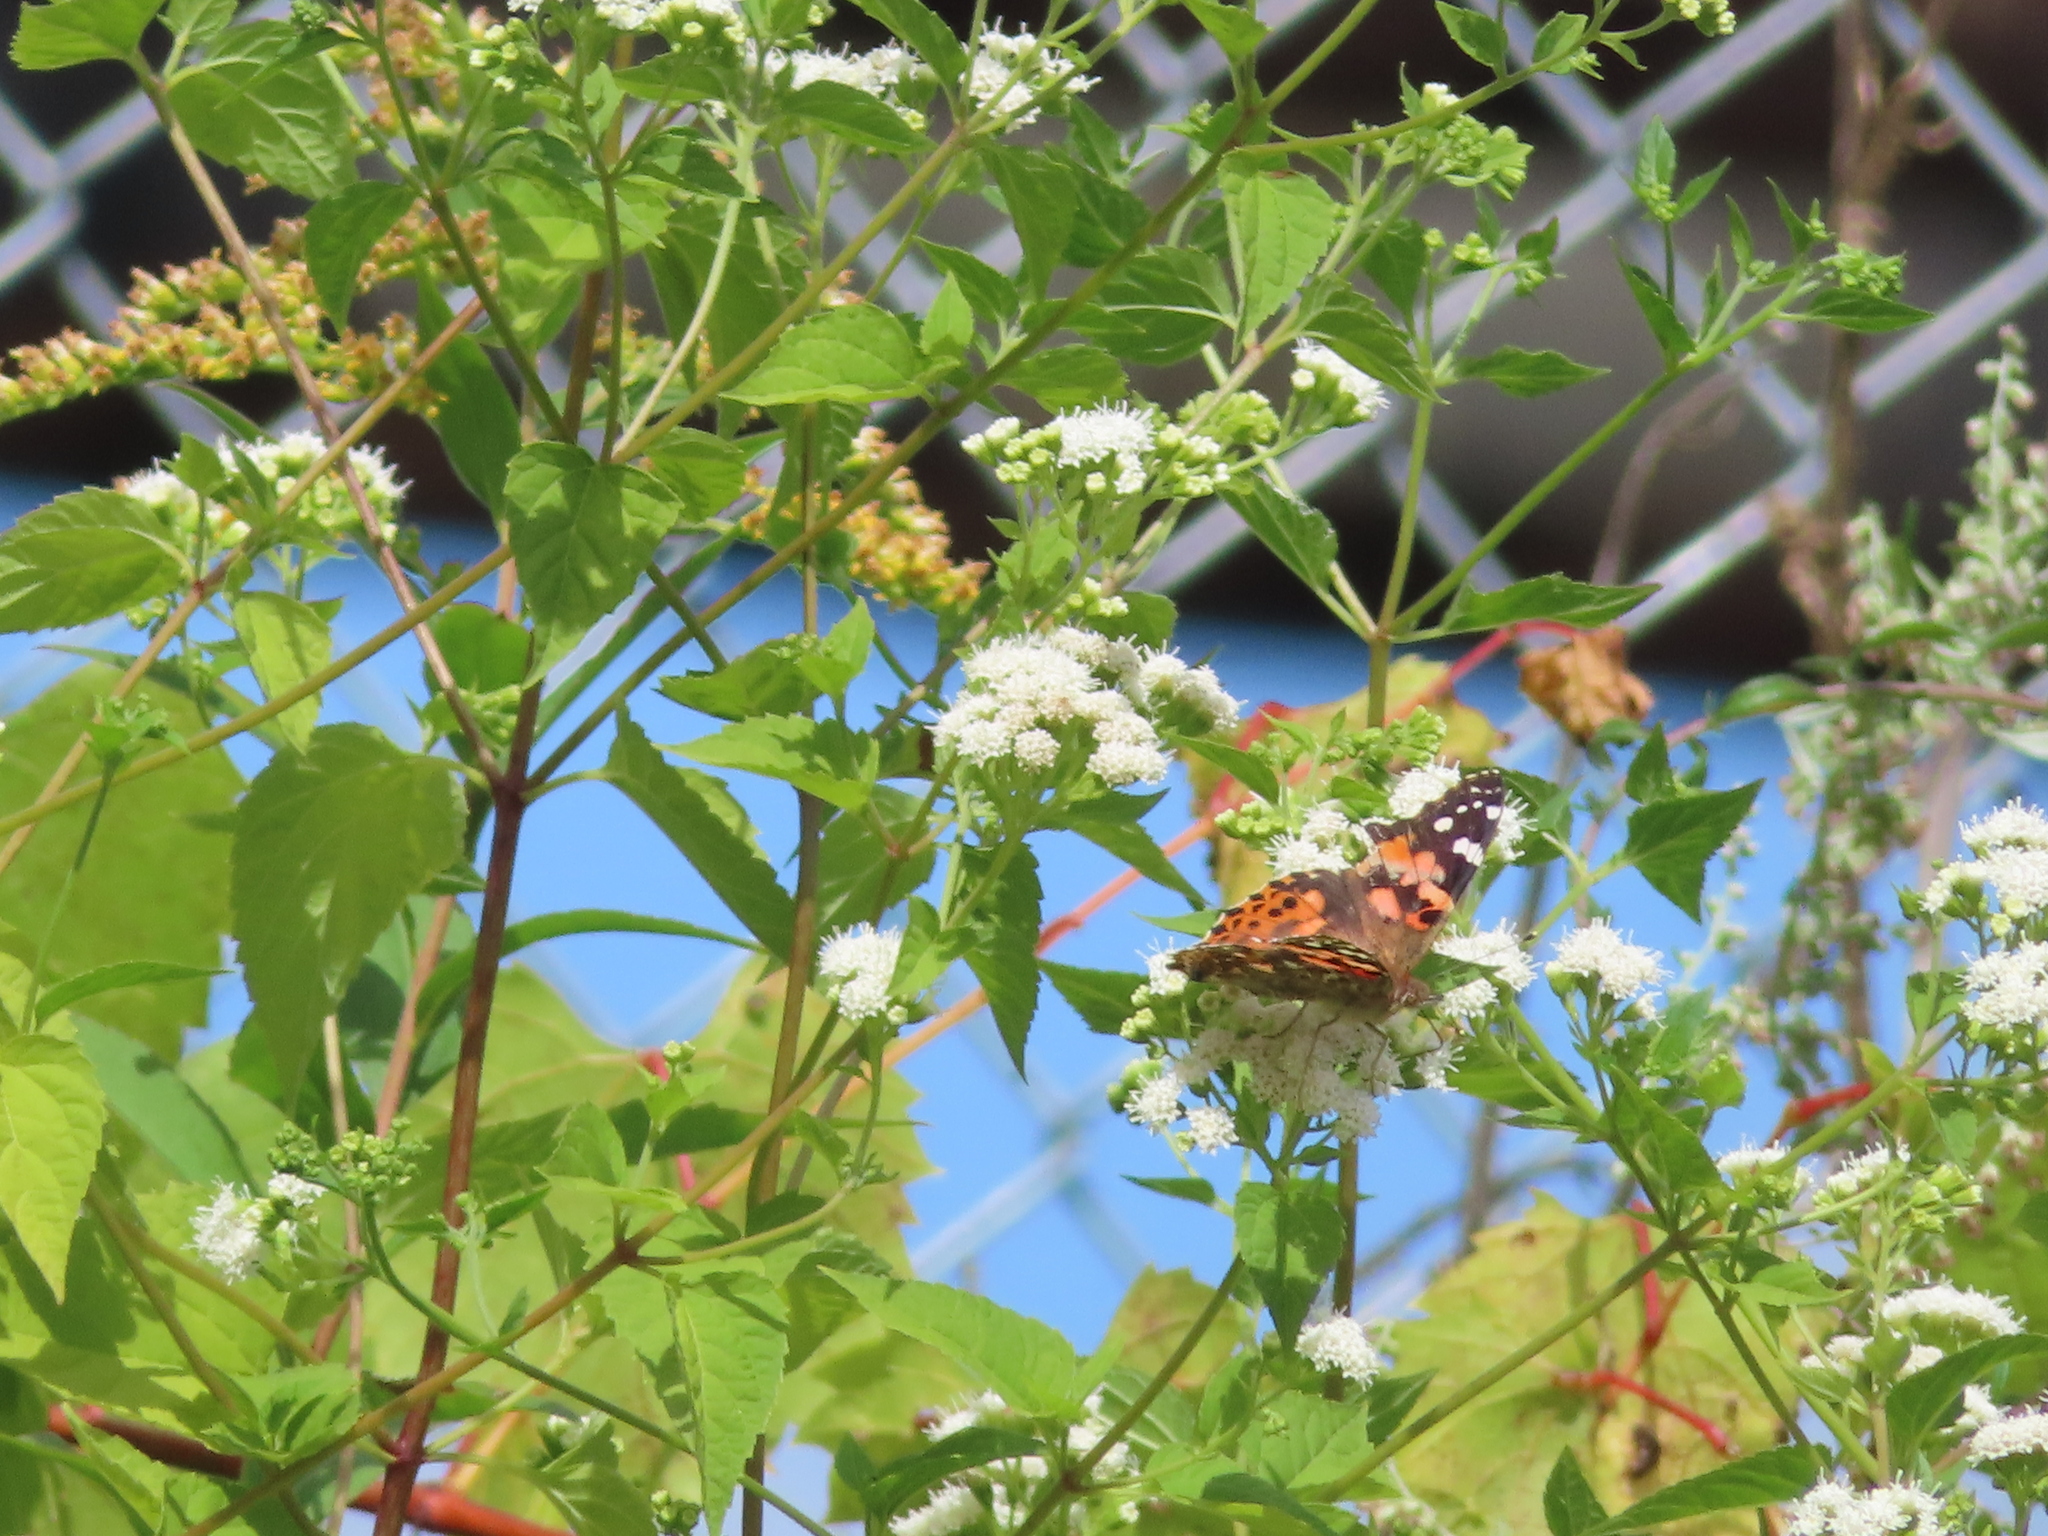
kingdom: Animalia
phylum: Arthropoda
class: Insecta
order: Lepidoptera
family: Nymphalidae
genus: Vanessa
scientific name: Vanessa cardui
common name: Painted lady
